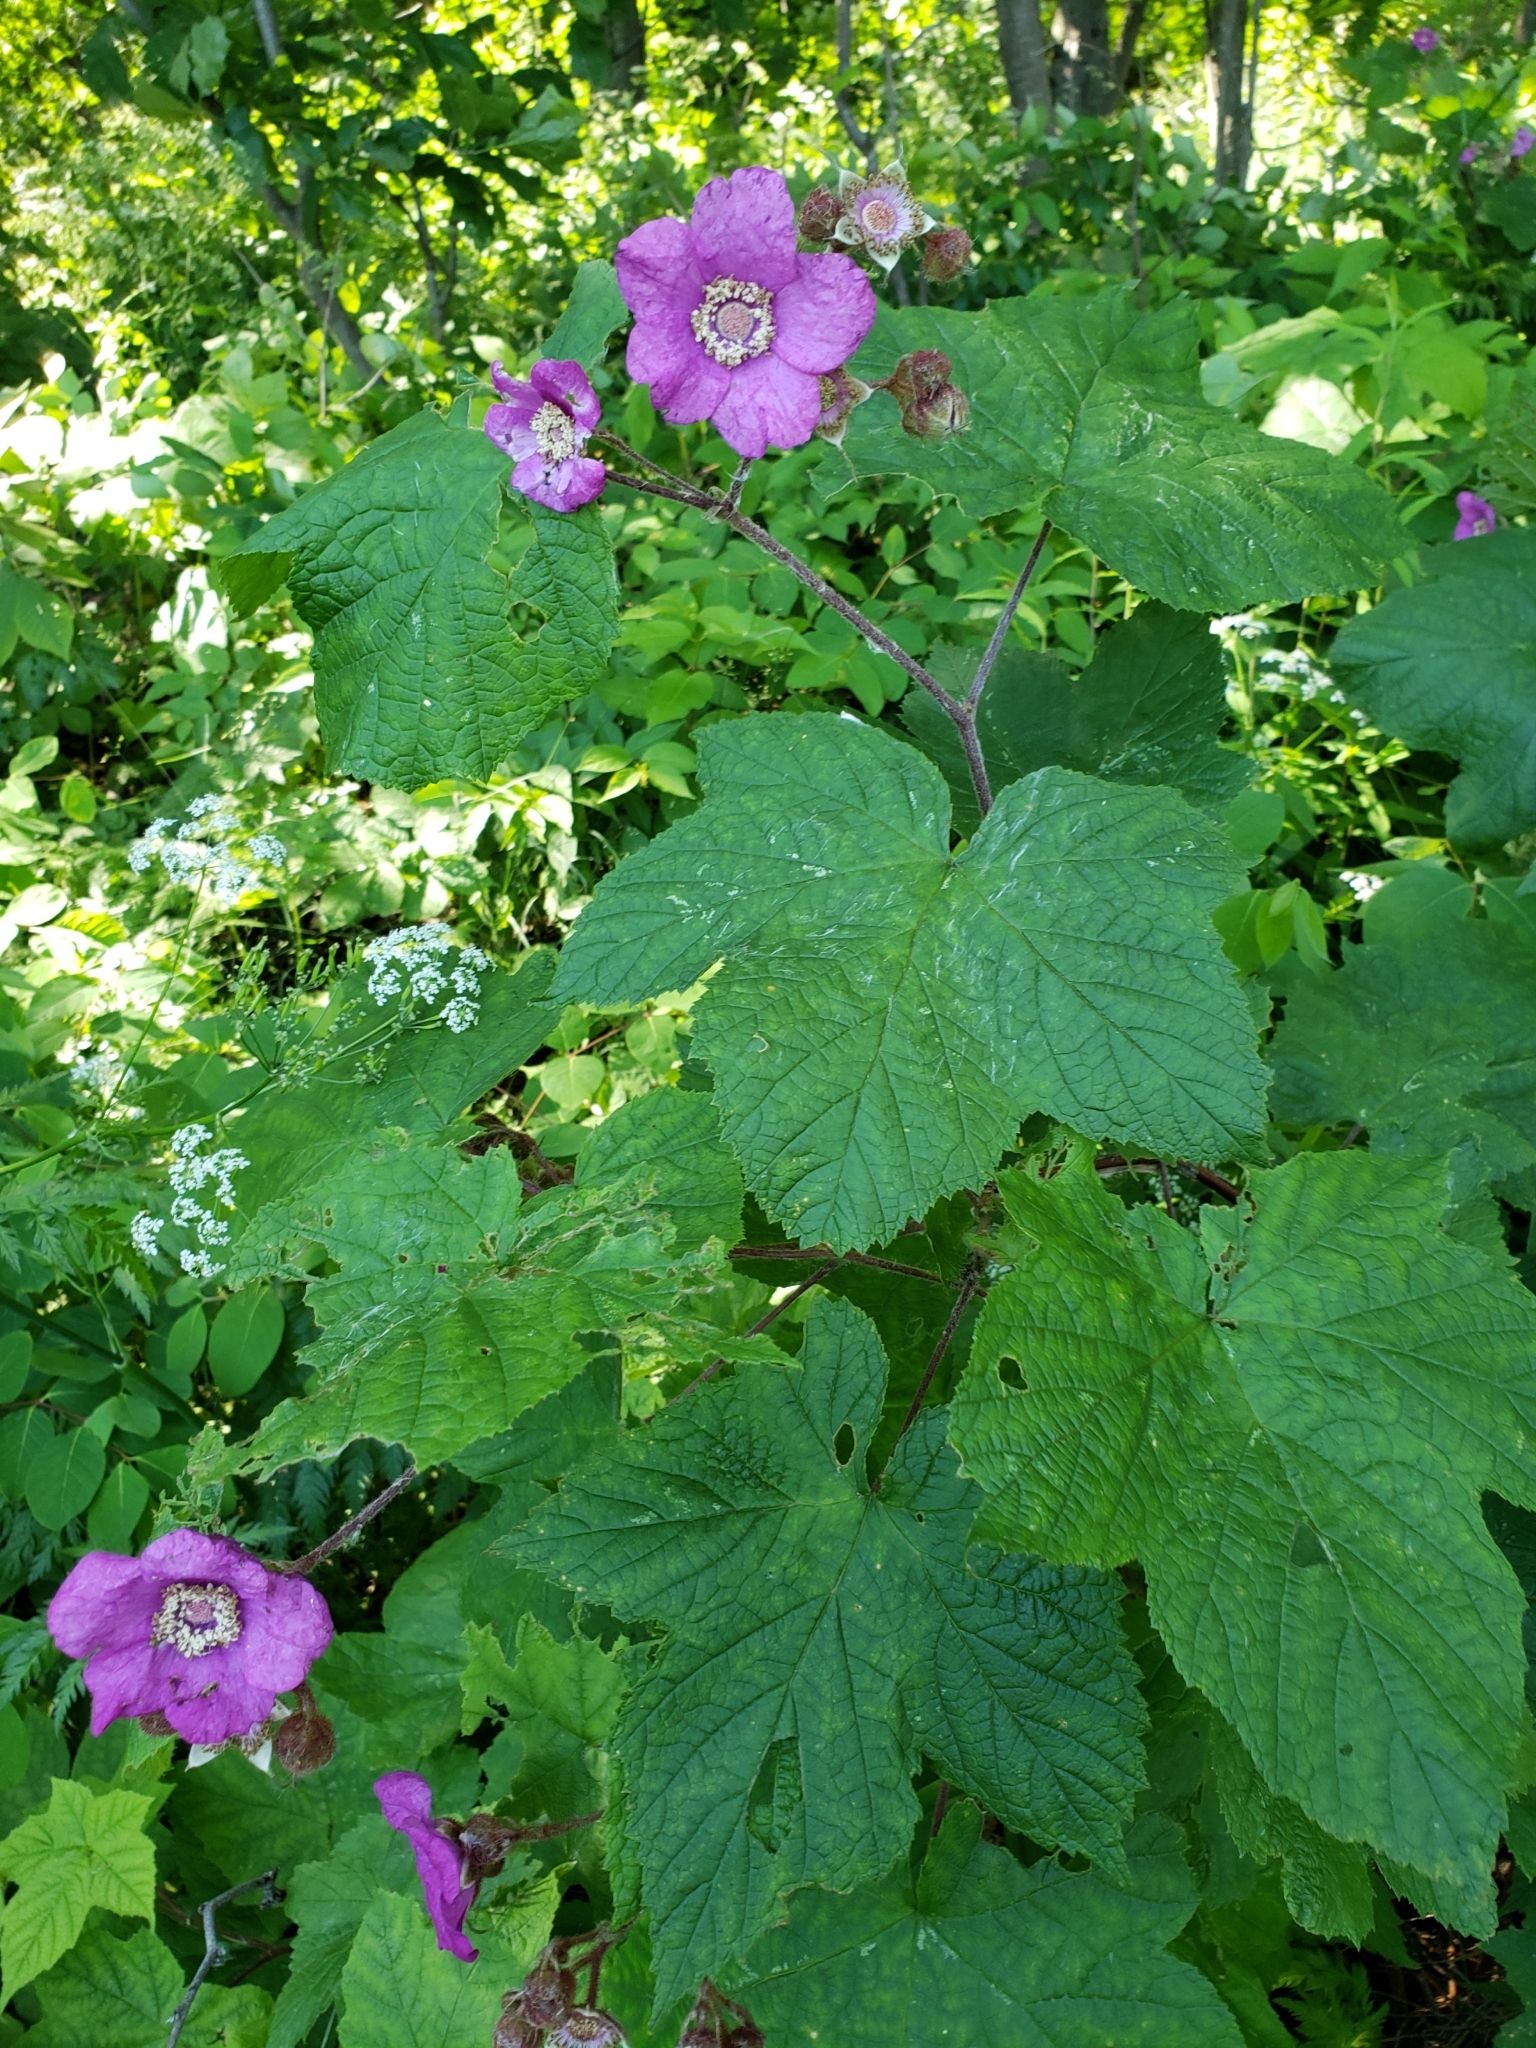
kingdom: Plantae
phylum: Tracheophyta
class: Magnoliopsida
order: Rosales
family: Rosaceae
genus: Rubus
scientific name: Rubus odoratus
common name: Purple-flowered raspberry
